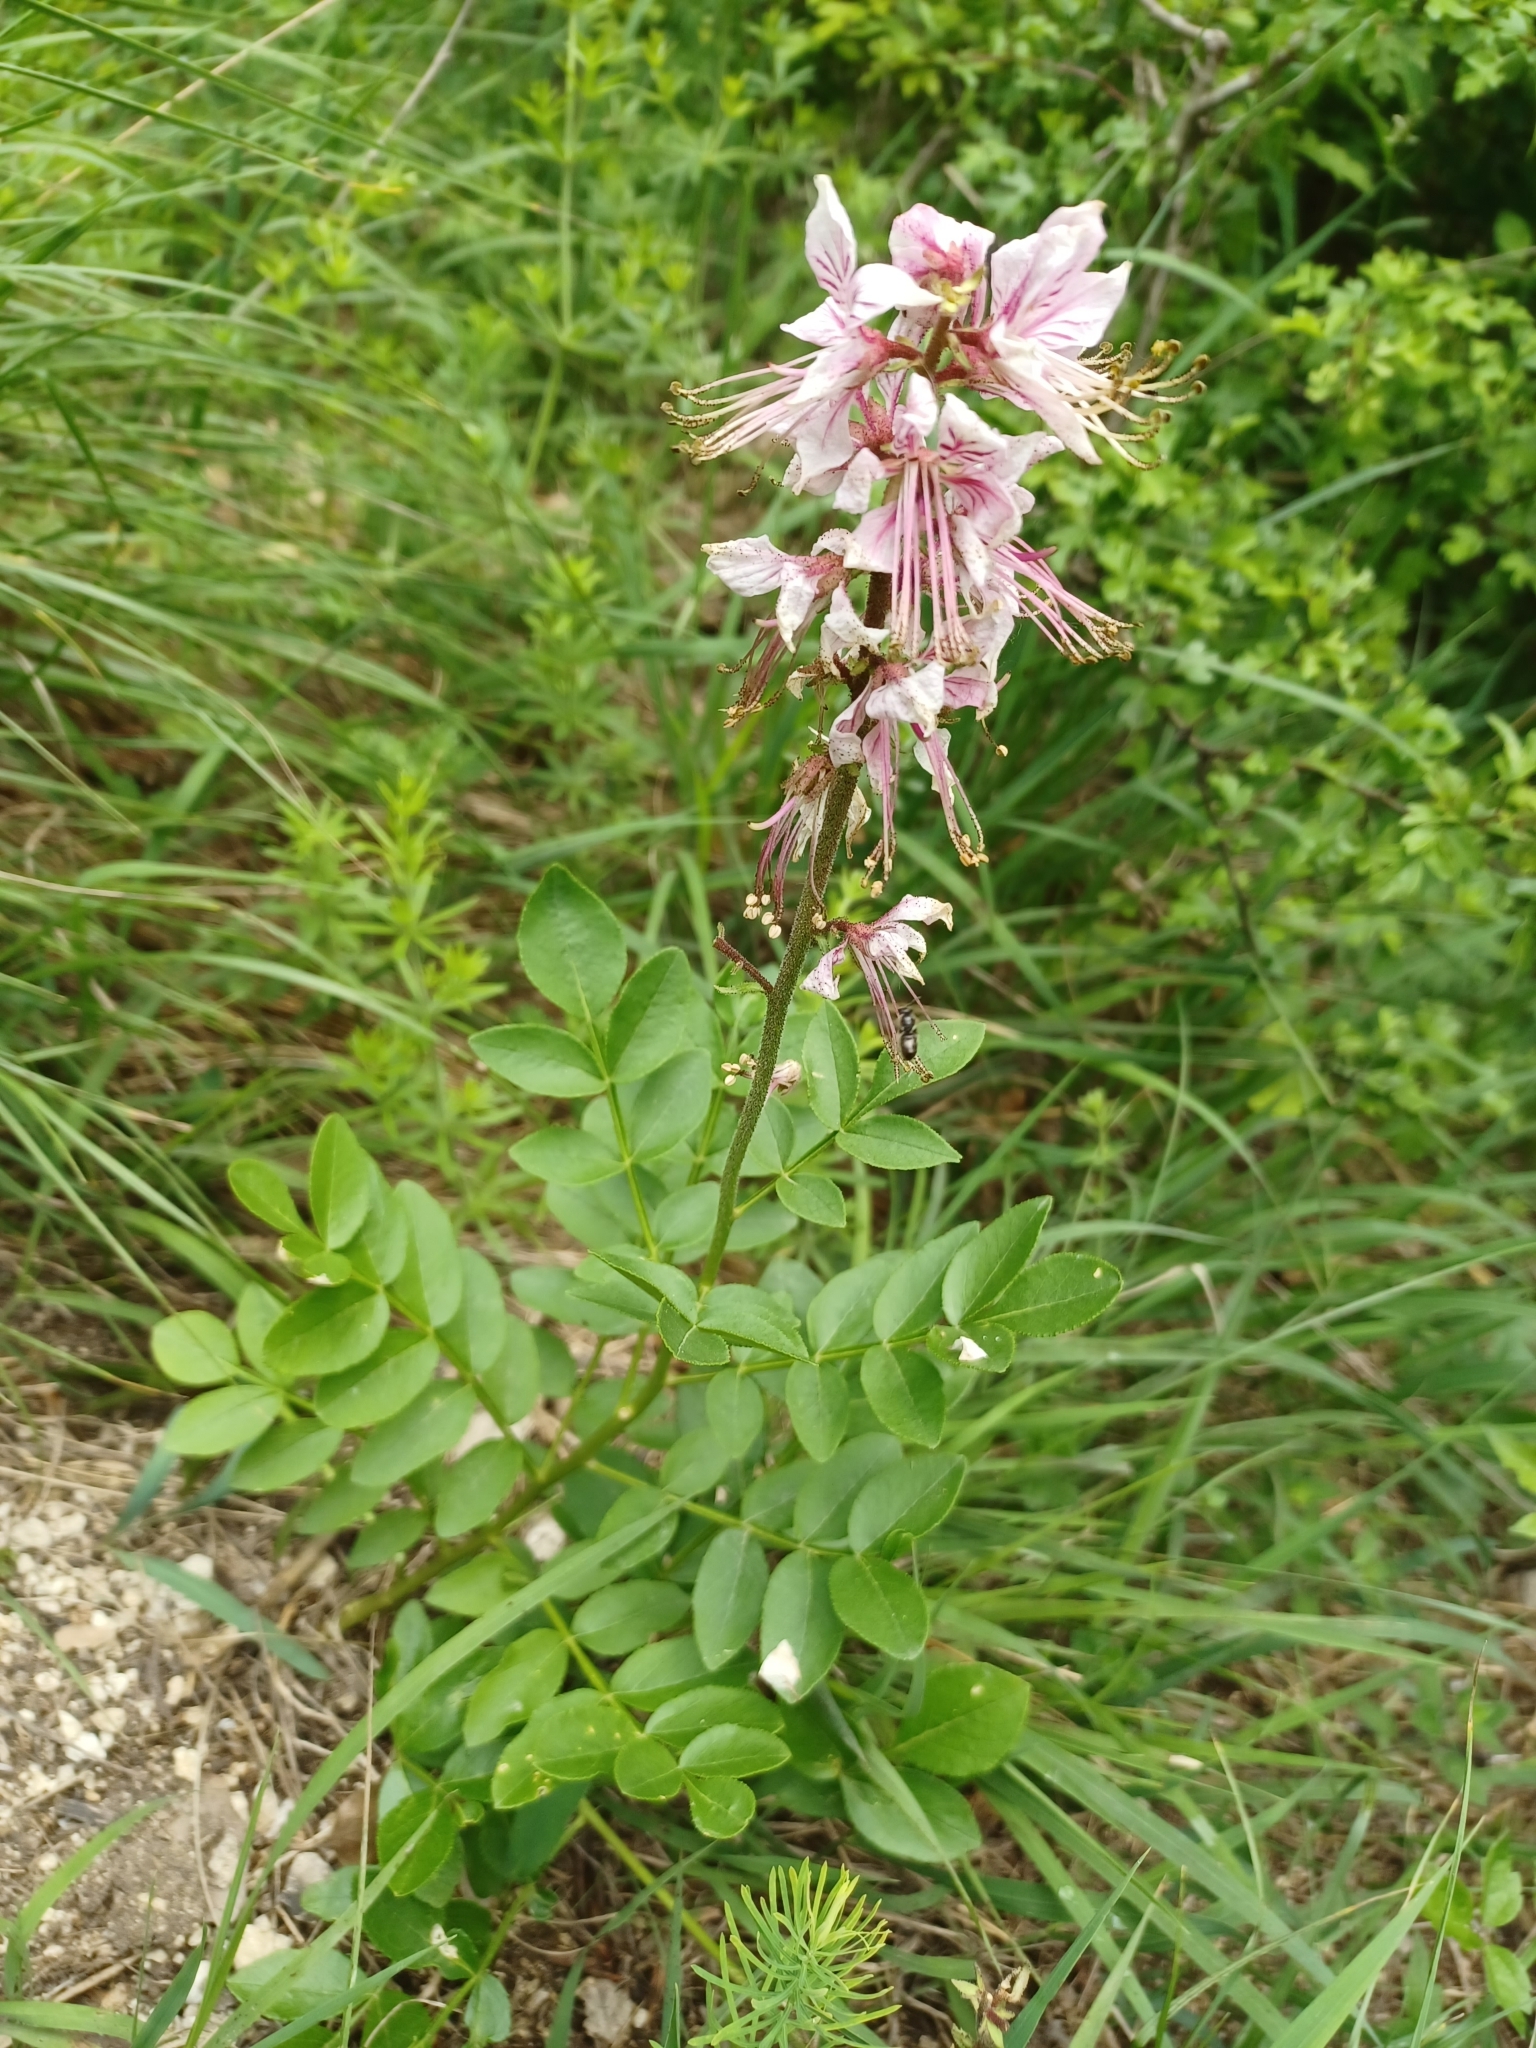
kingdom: Plantae
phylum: Tracheophyta
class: Magnoliopsida
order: Sapindales
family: Rutaceae
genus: Dictamnus
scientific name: Dictamnus albus
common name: Gasplant
